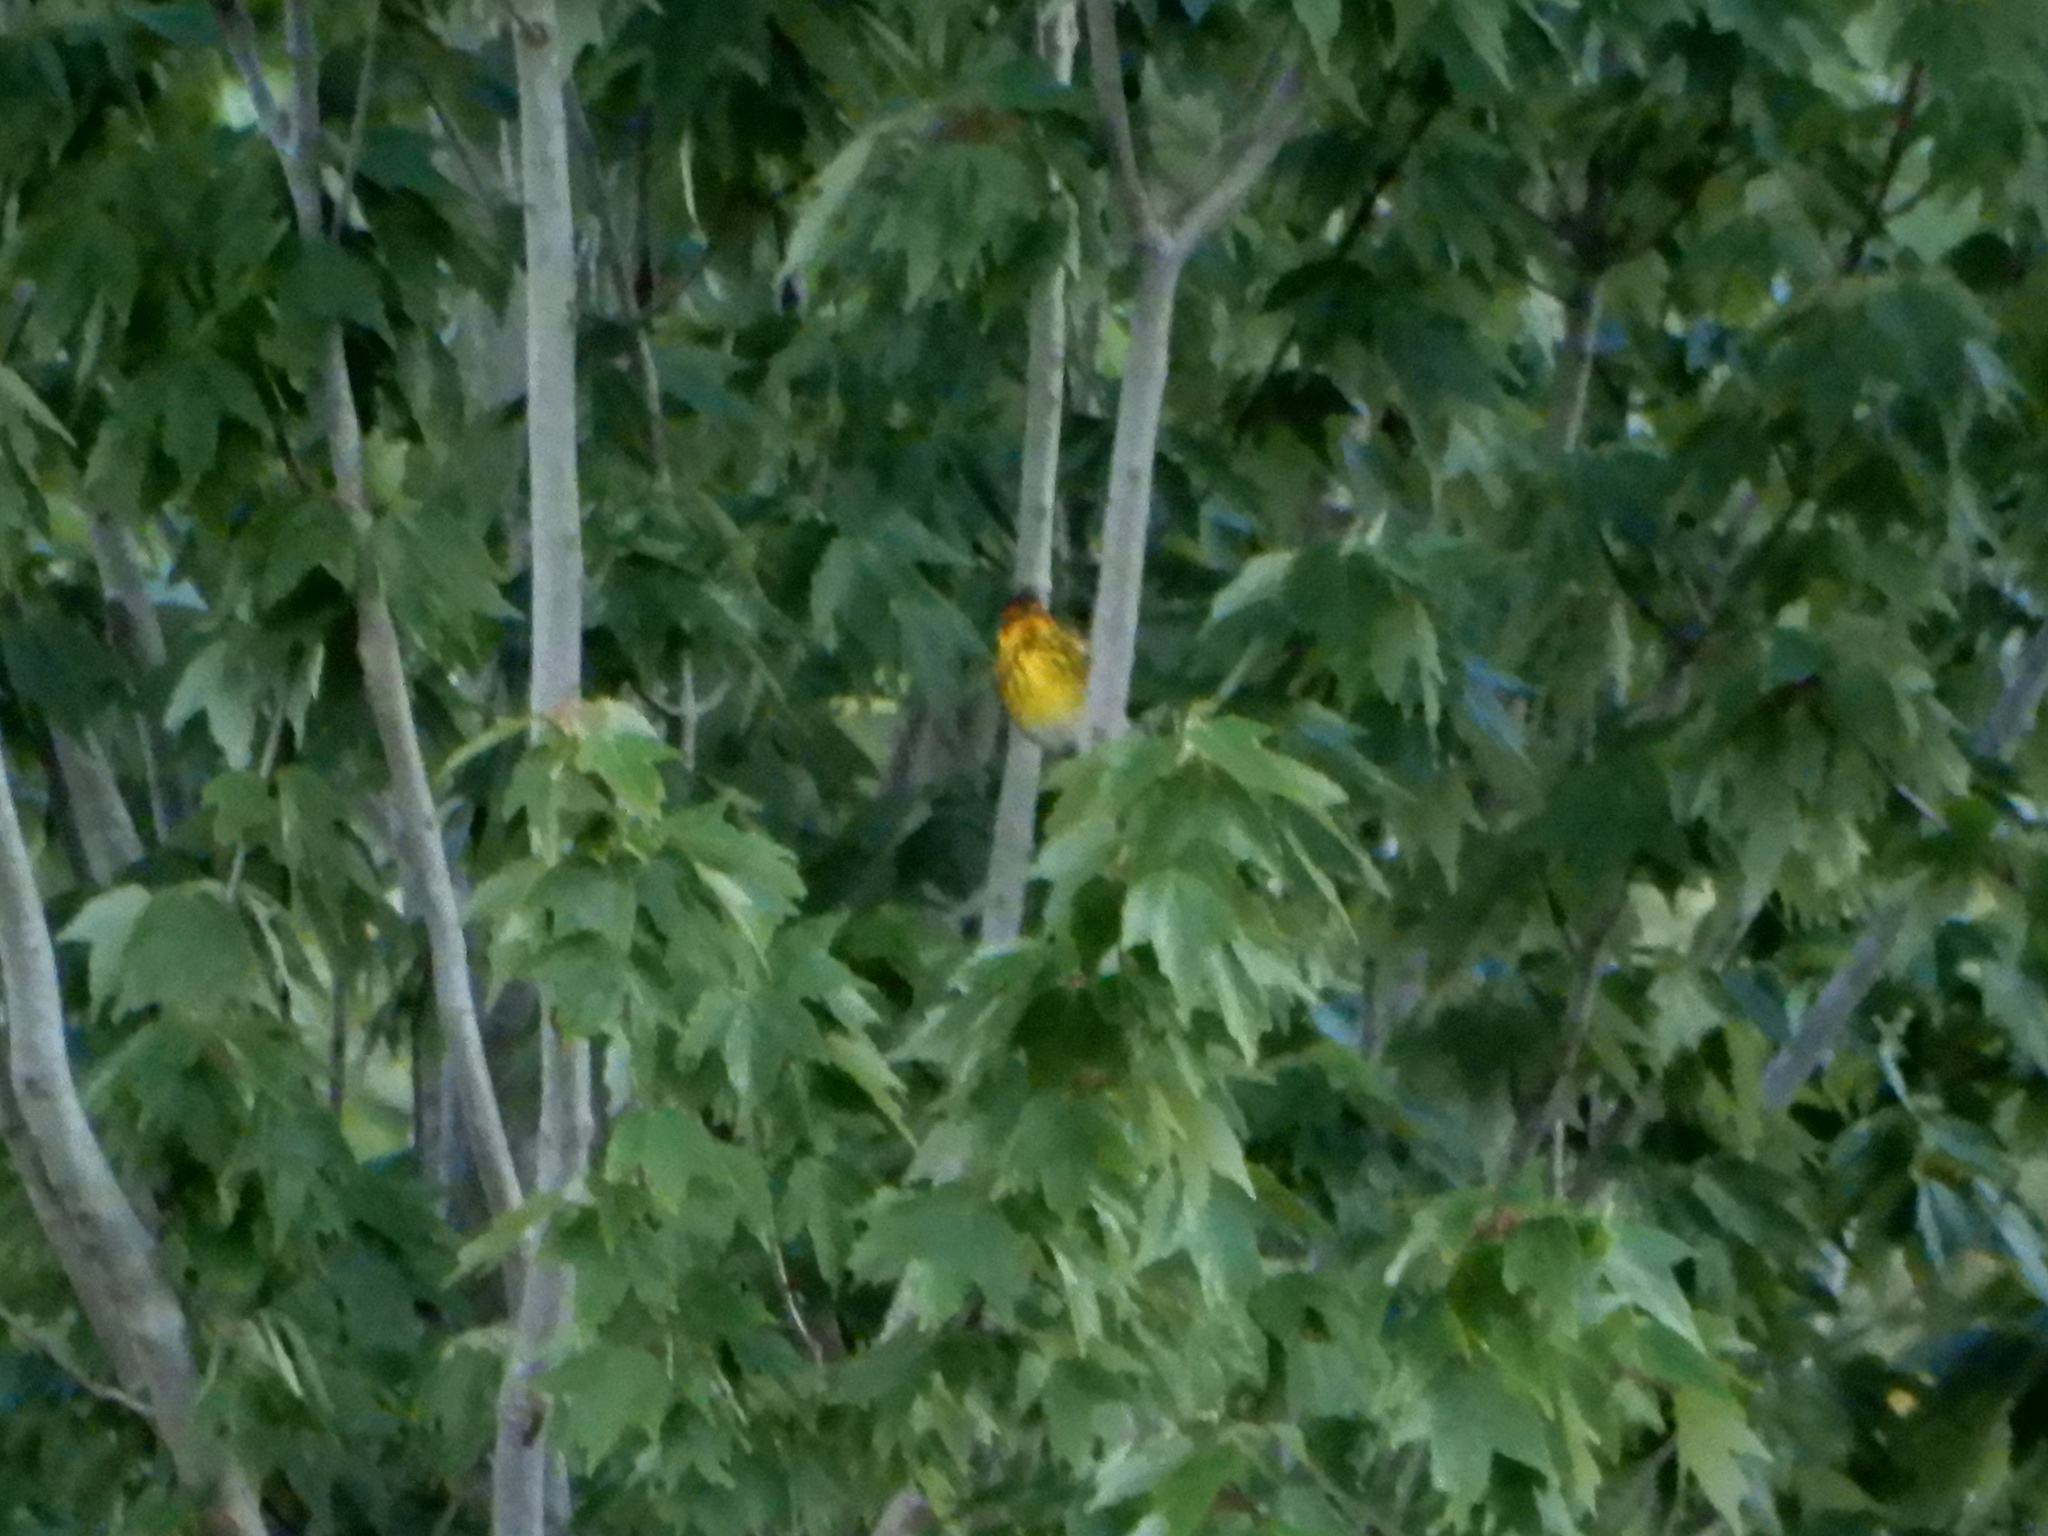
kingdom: Animalia
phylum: Chordata
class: Aves
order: Passeriformes
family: Parulidae
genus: Setophaga
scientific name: Setophaga tigrina
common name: Cape may warbler
